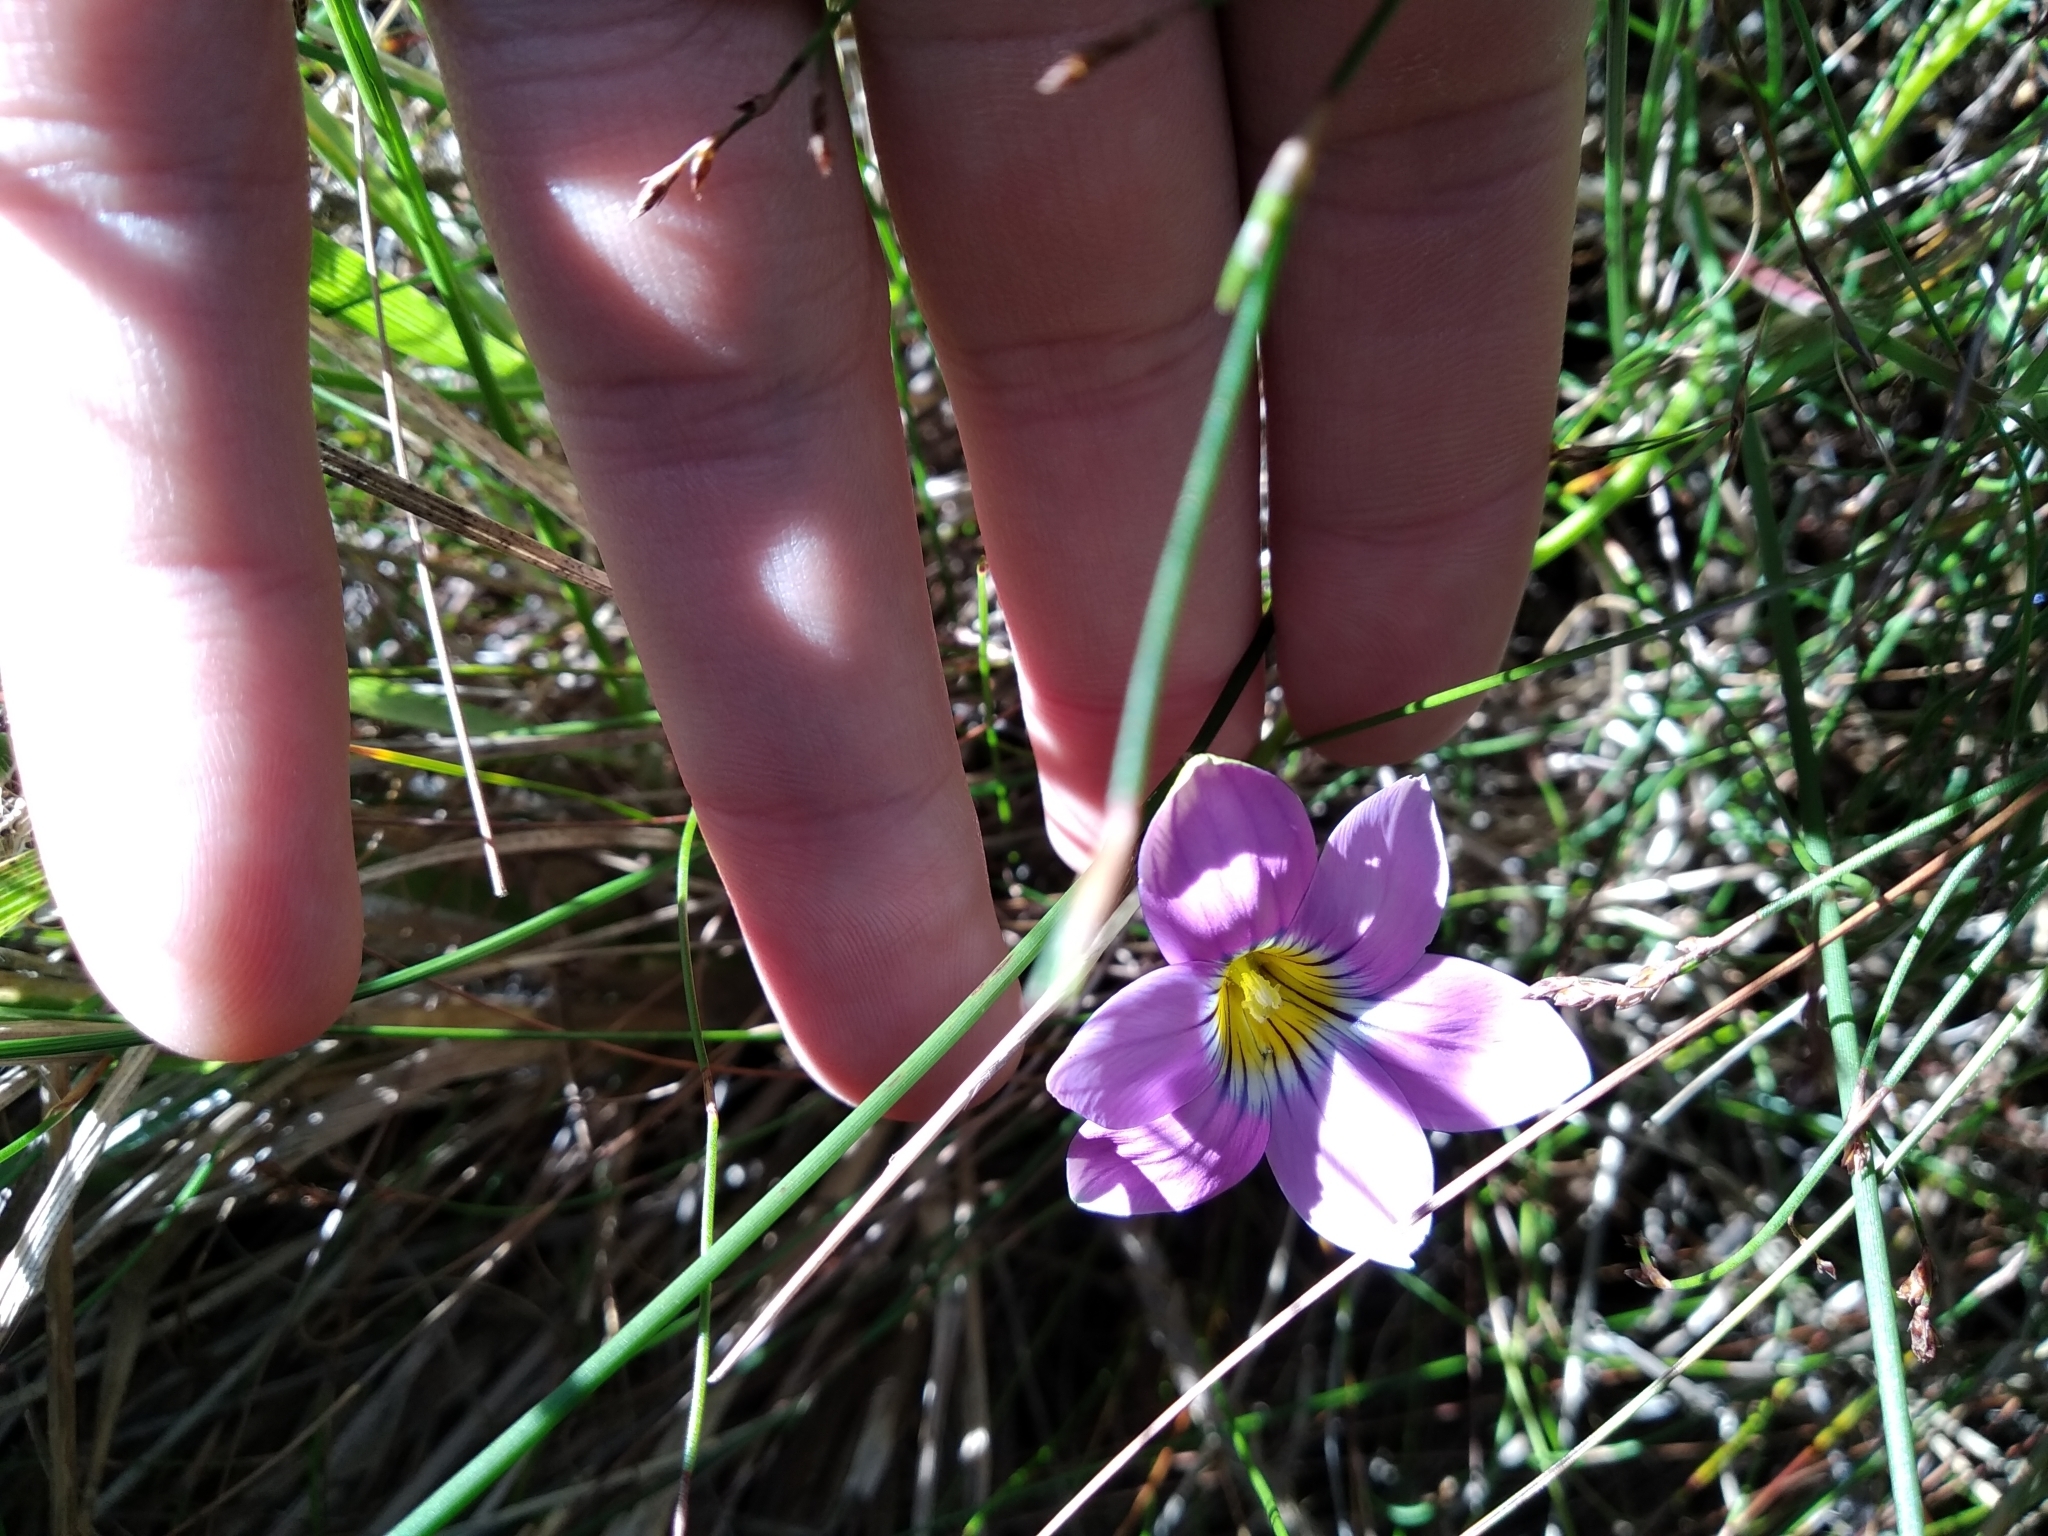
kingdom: Plantae
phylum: Tracheophyta
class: Liliopsida
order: Asparagales
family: Iridaceae
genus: Romulea
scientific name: Romulea rosea
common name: Oniongrass
